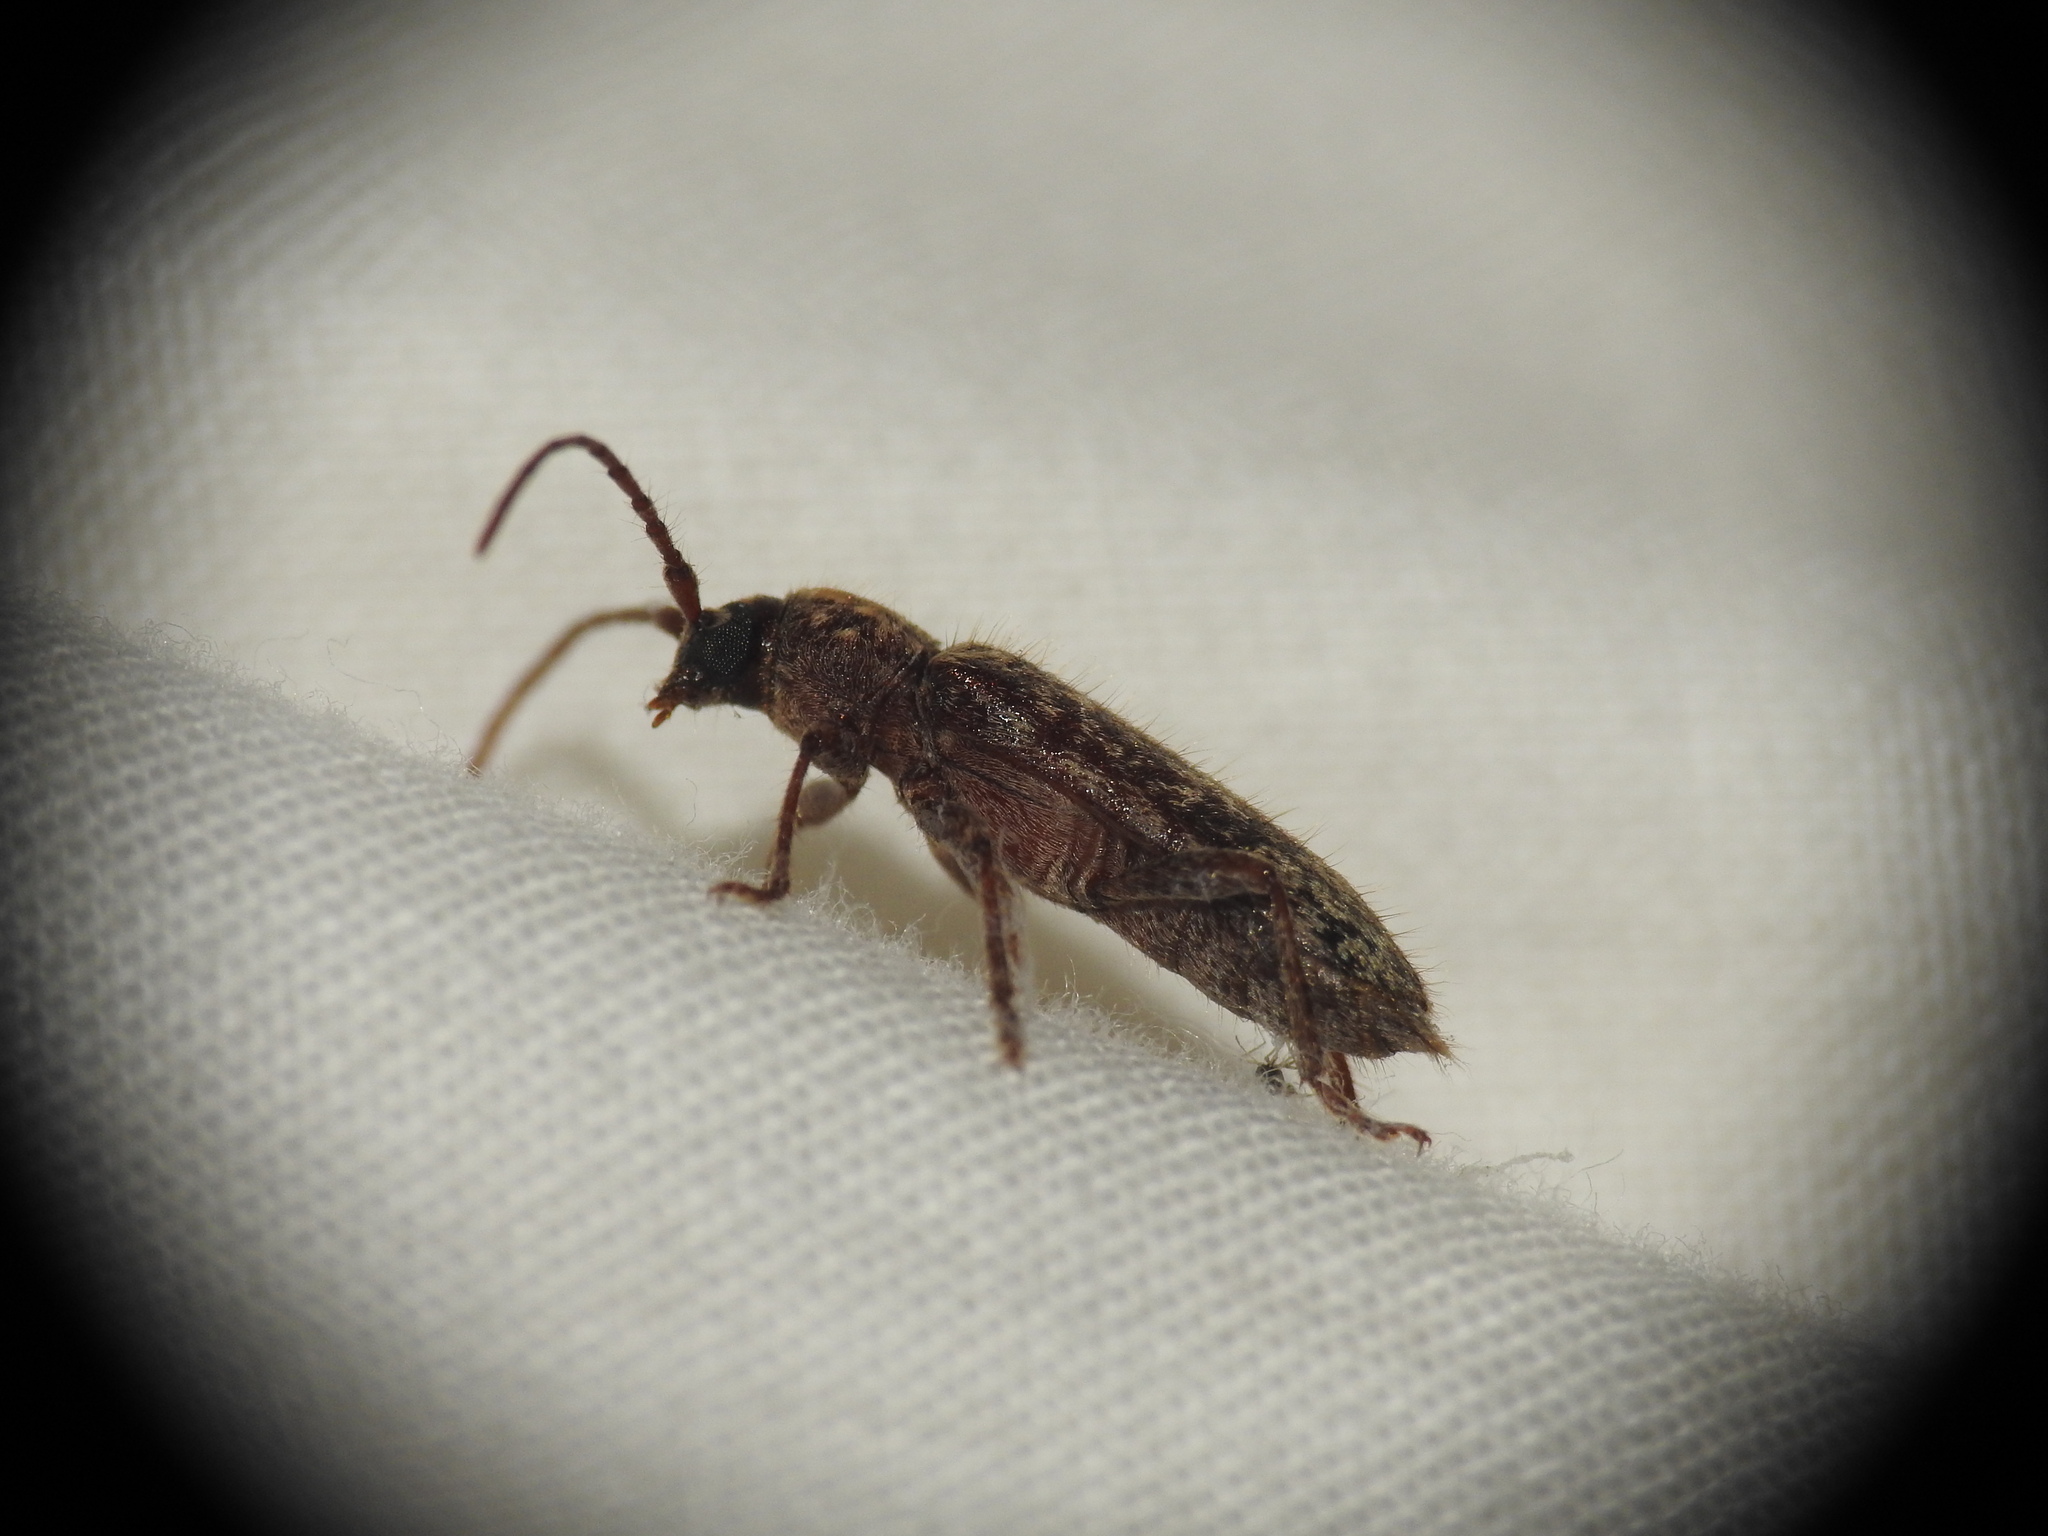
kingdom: Animalia
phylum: Arthropoda
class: Insecta
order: Coleoptera
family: Cerambycidae
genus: Trichoferus
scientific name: Trichoferus fasciculatus
